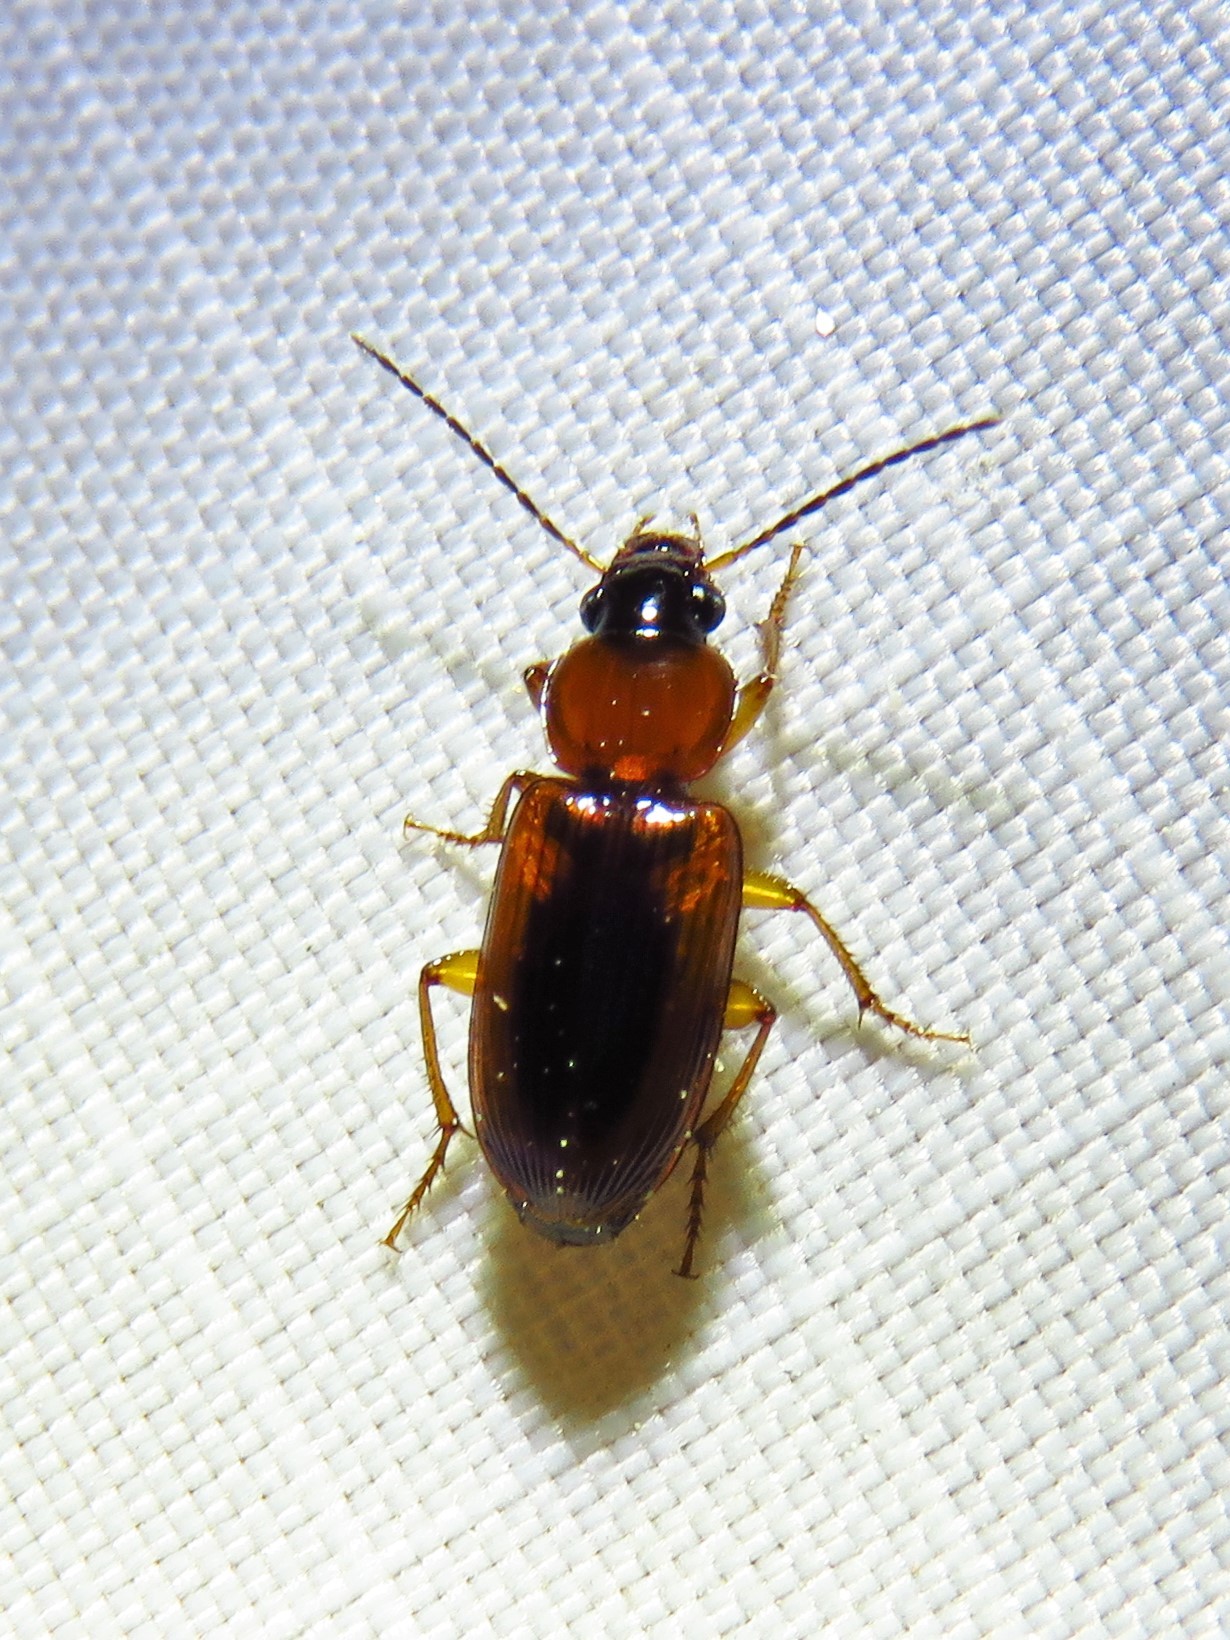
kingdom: Animalia
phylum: Arthropoda
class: Insecta
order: Coleoptera
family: Carabidae
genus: Stenolophus
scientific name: Stenolophus dissimilis
